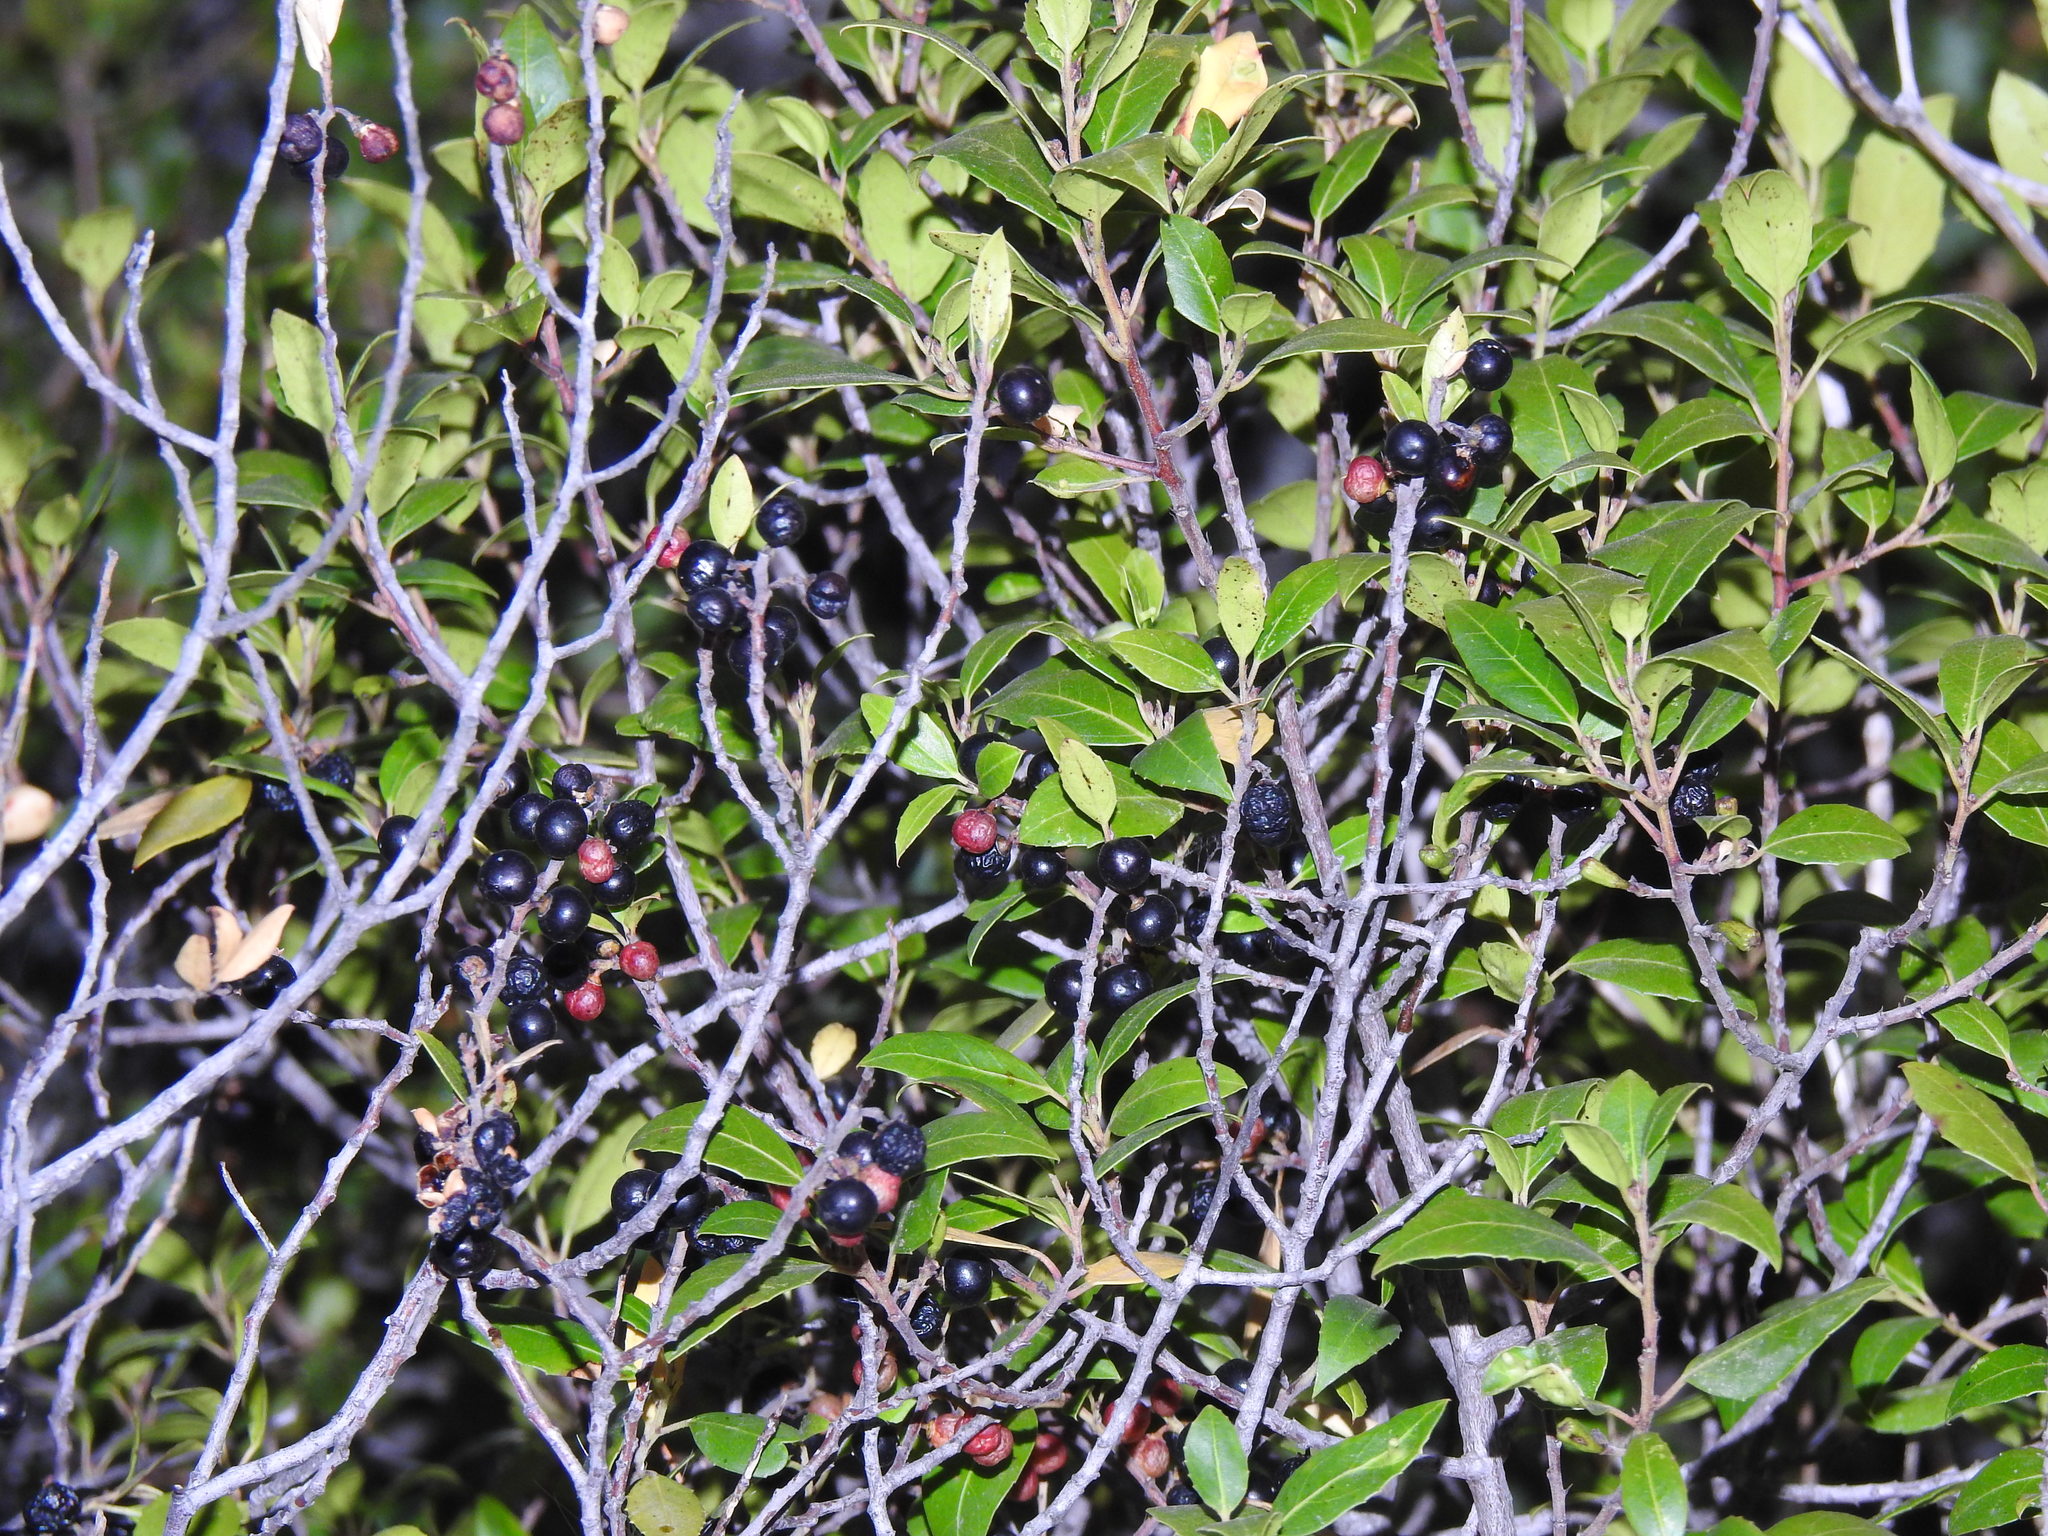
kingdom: Plantae
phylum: Tracheophyta
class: Magnoliopsida
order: Rosales
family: Rhamnaceae
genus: Rhamnus
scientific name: Rhamnus alaternus
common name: Mediterranean buckthorn
